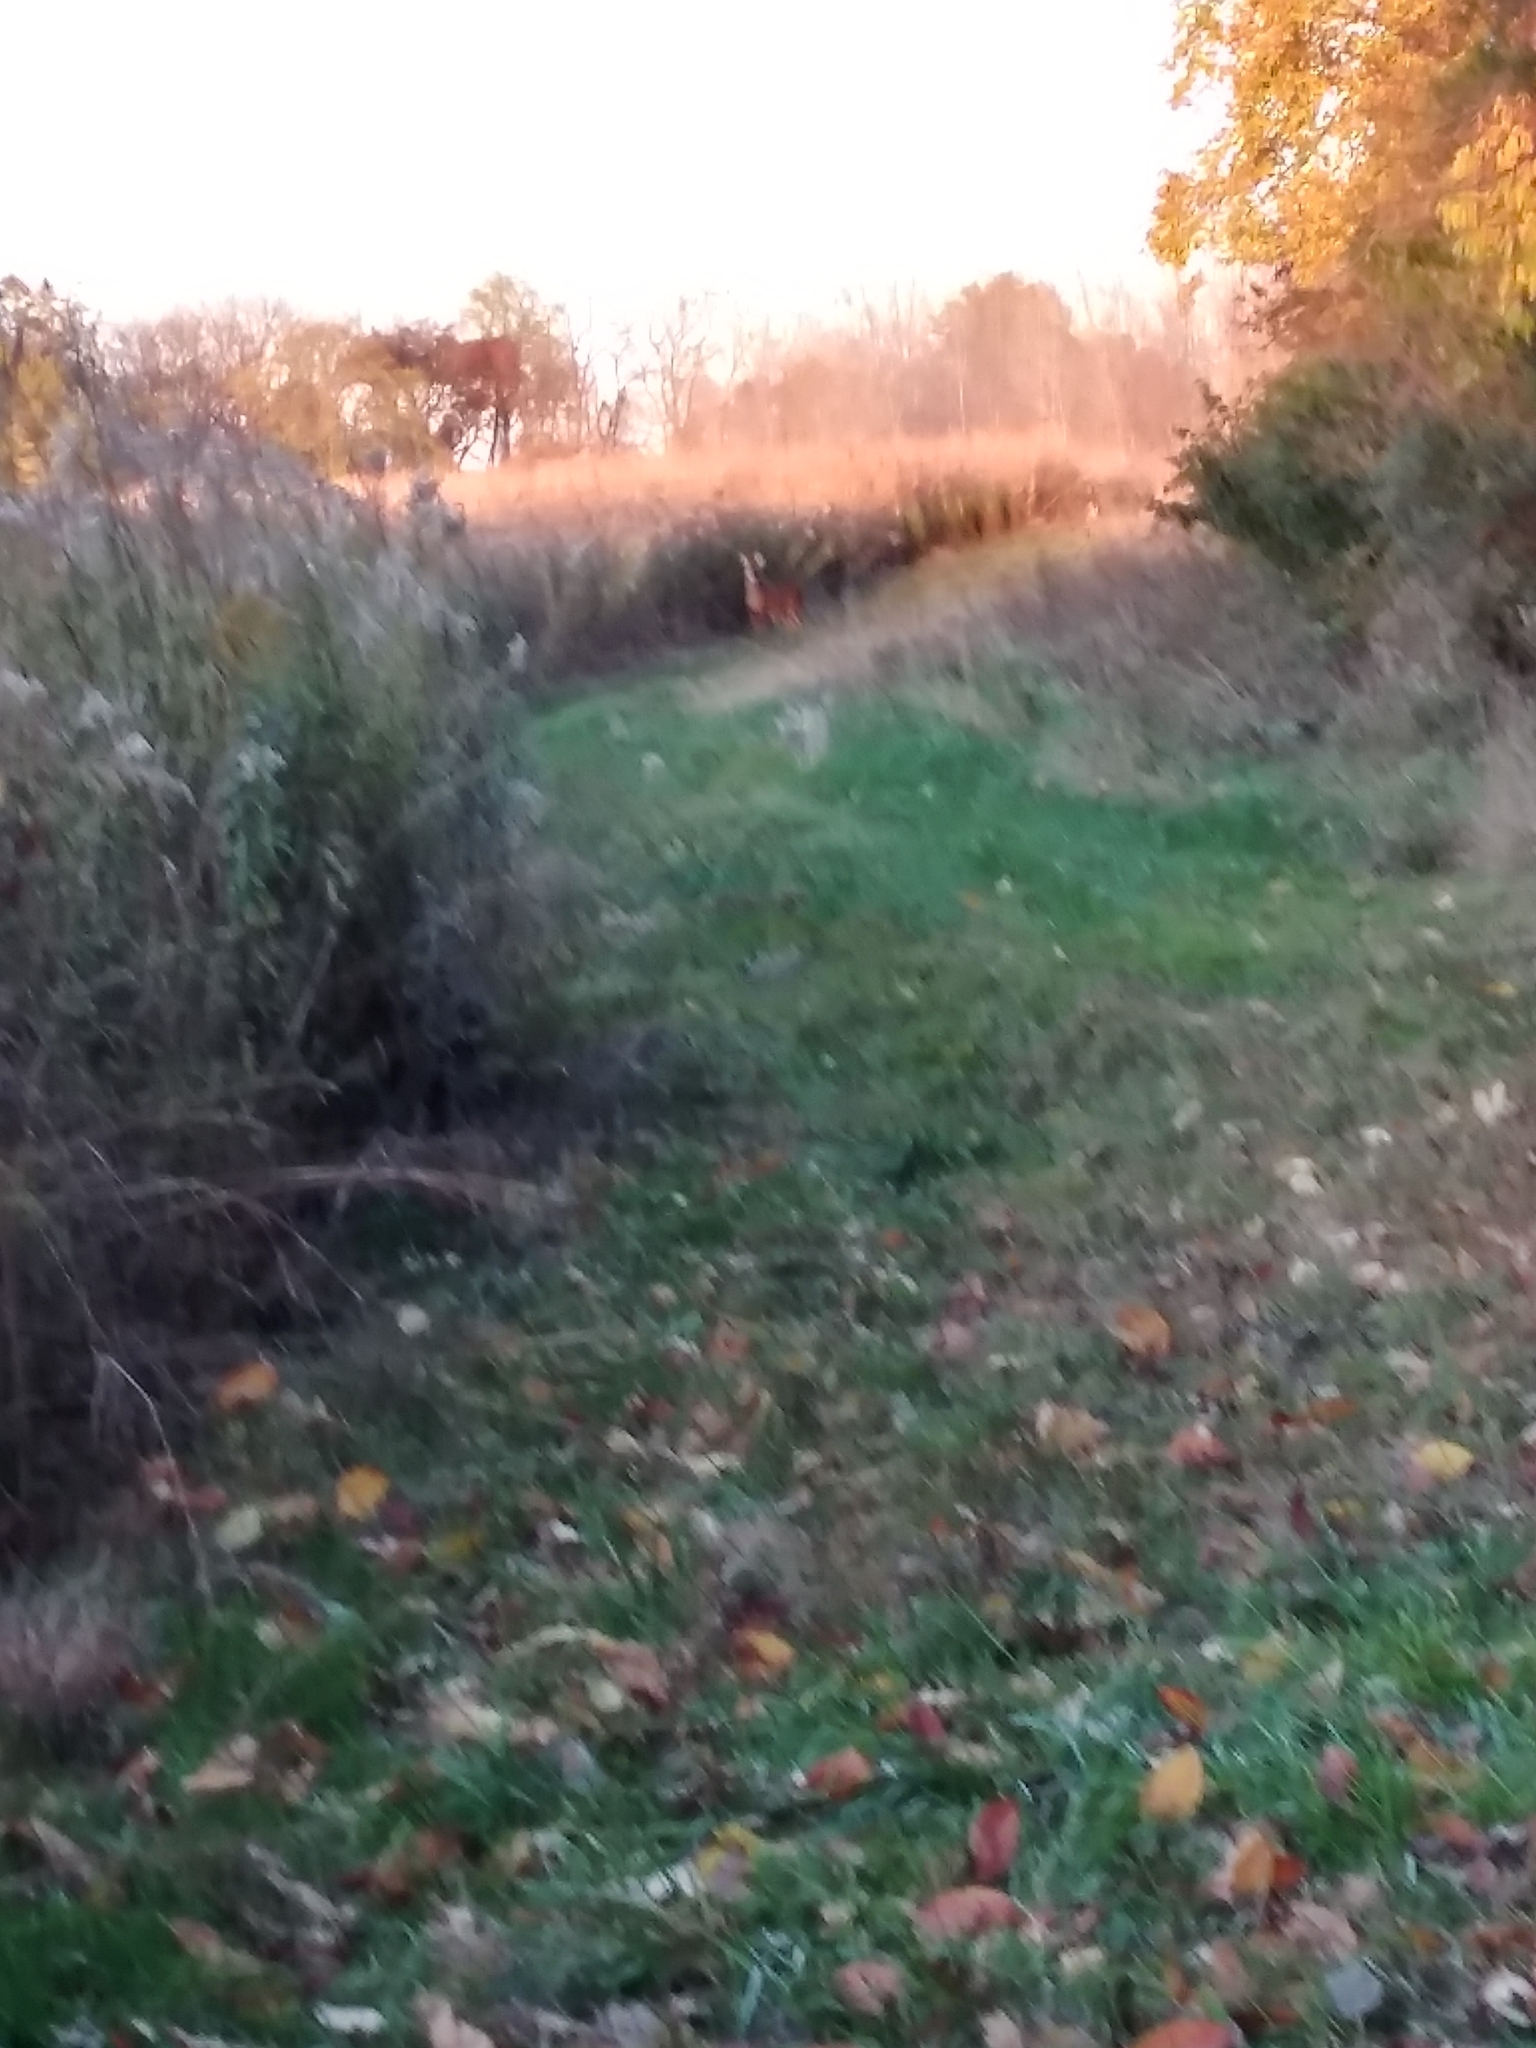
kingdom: Animalia
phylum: Chordata
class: Mammalia
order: Artiodactyla
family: Cervidae
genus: Odocoileus
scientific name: Odocoileus virginianus
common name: White-tailed deer
